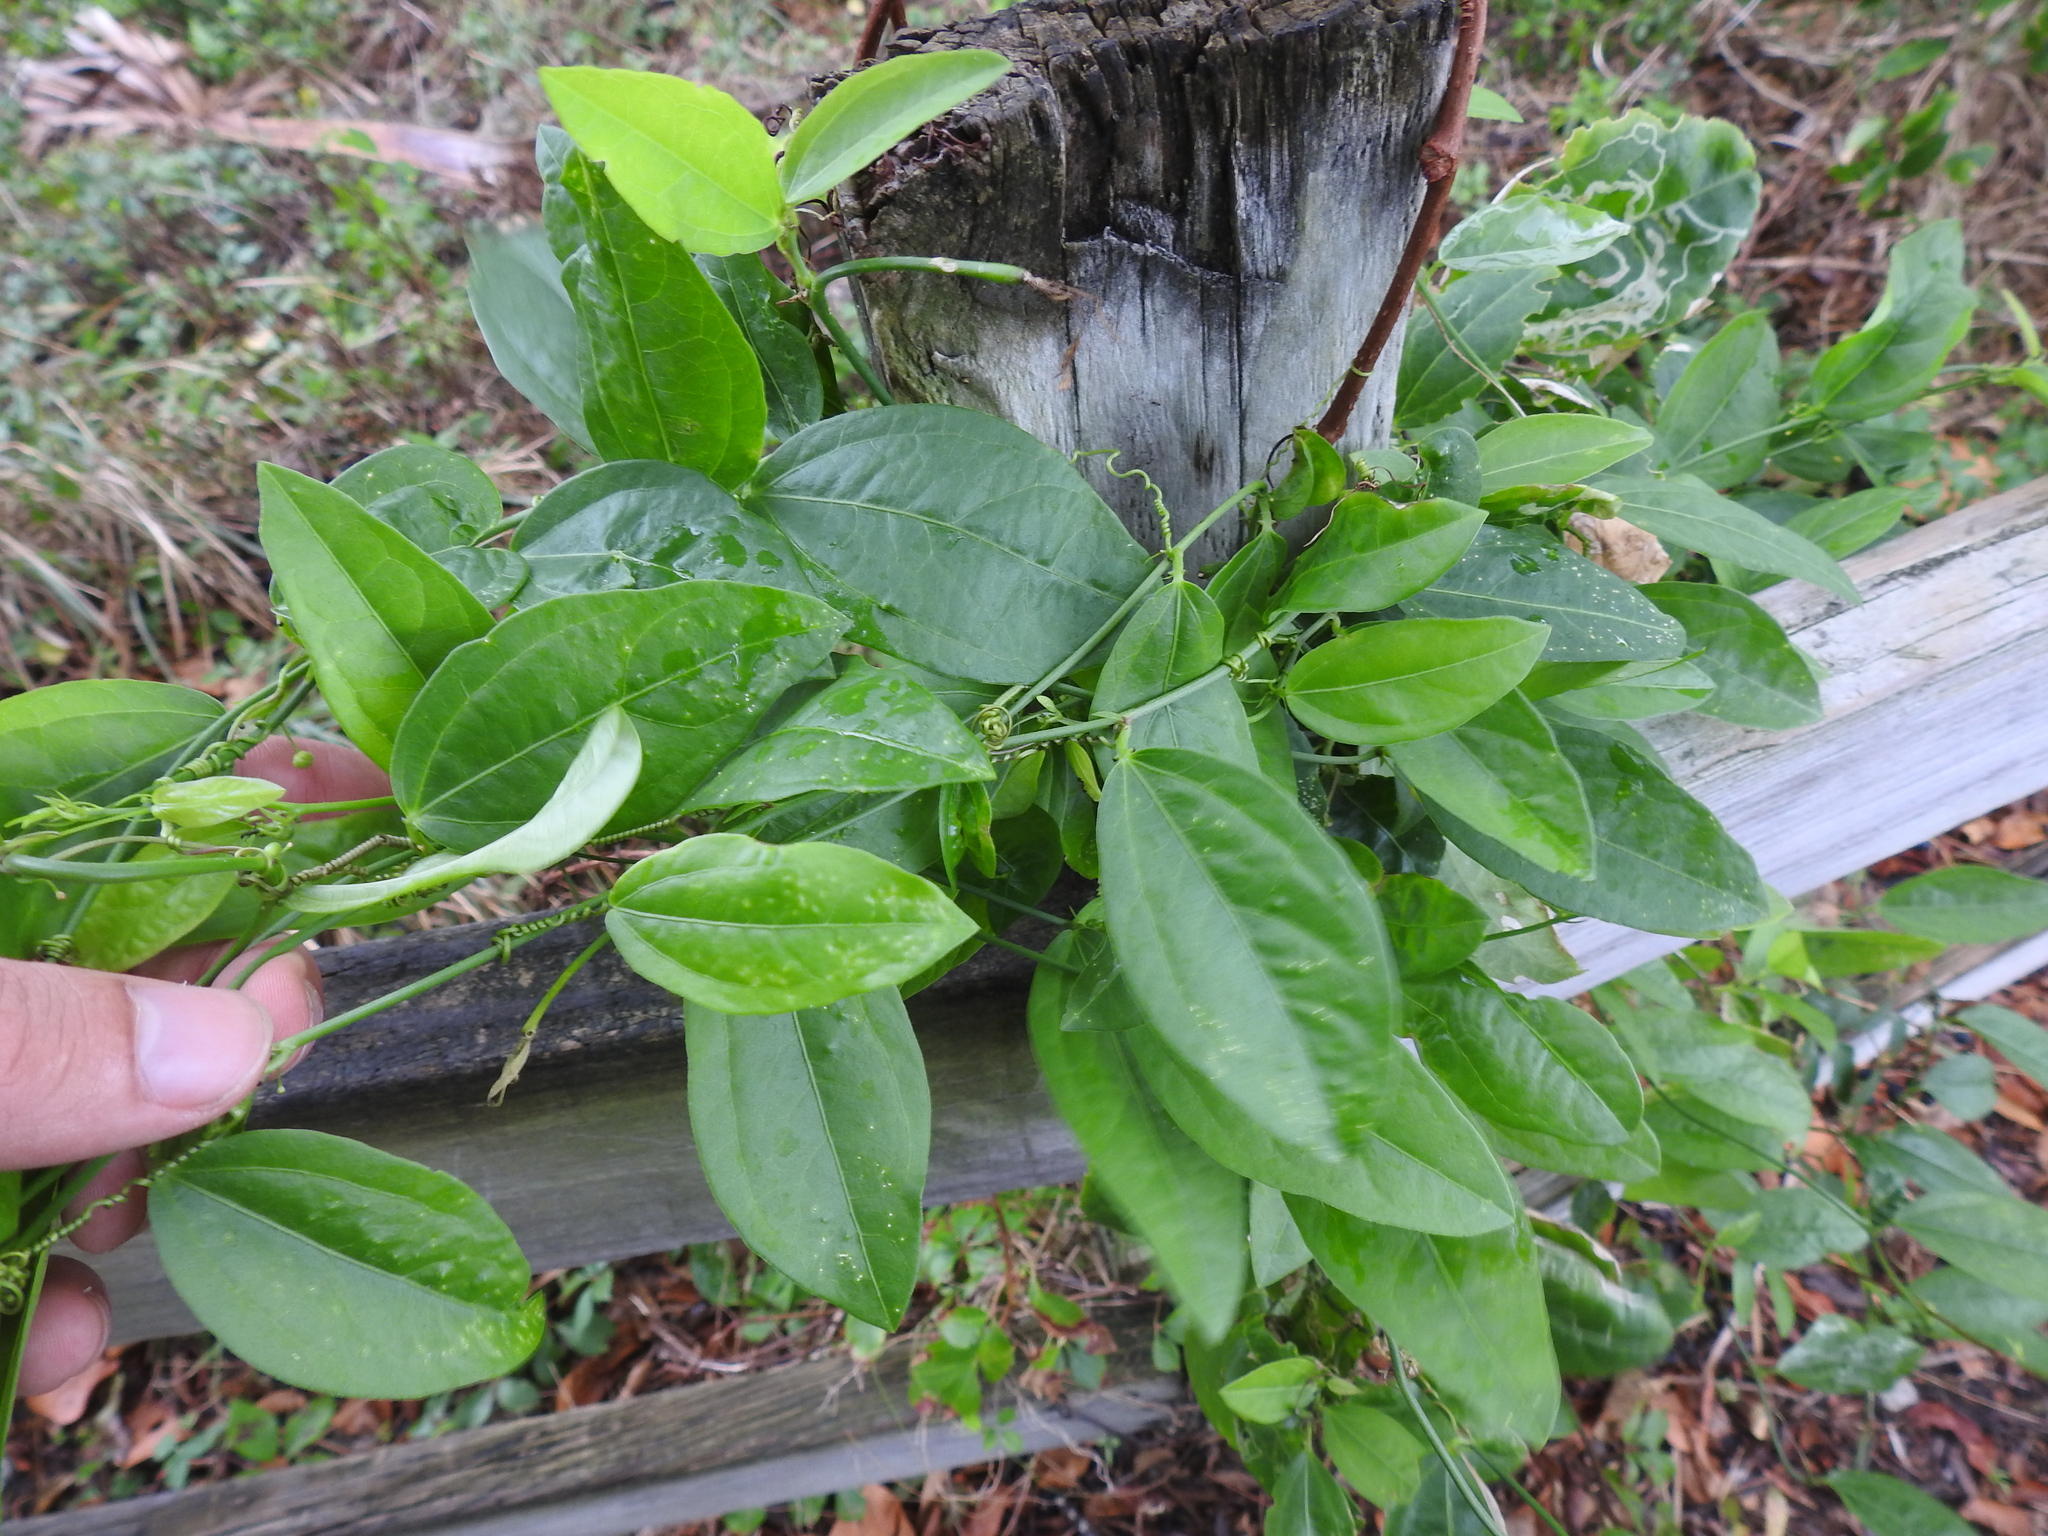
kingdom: Plantae
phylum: Tracheophyta
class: Magnoliopsida
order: Malpighiales
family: Passifloraceae
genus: Passiflora
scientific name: Passiflora pallida
